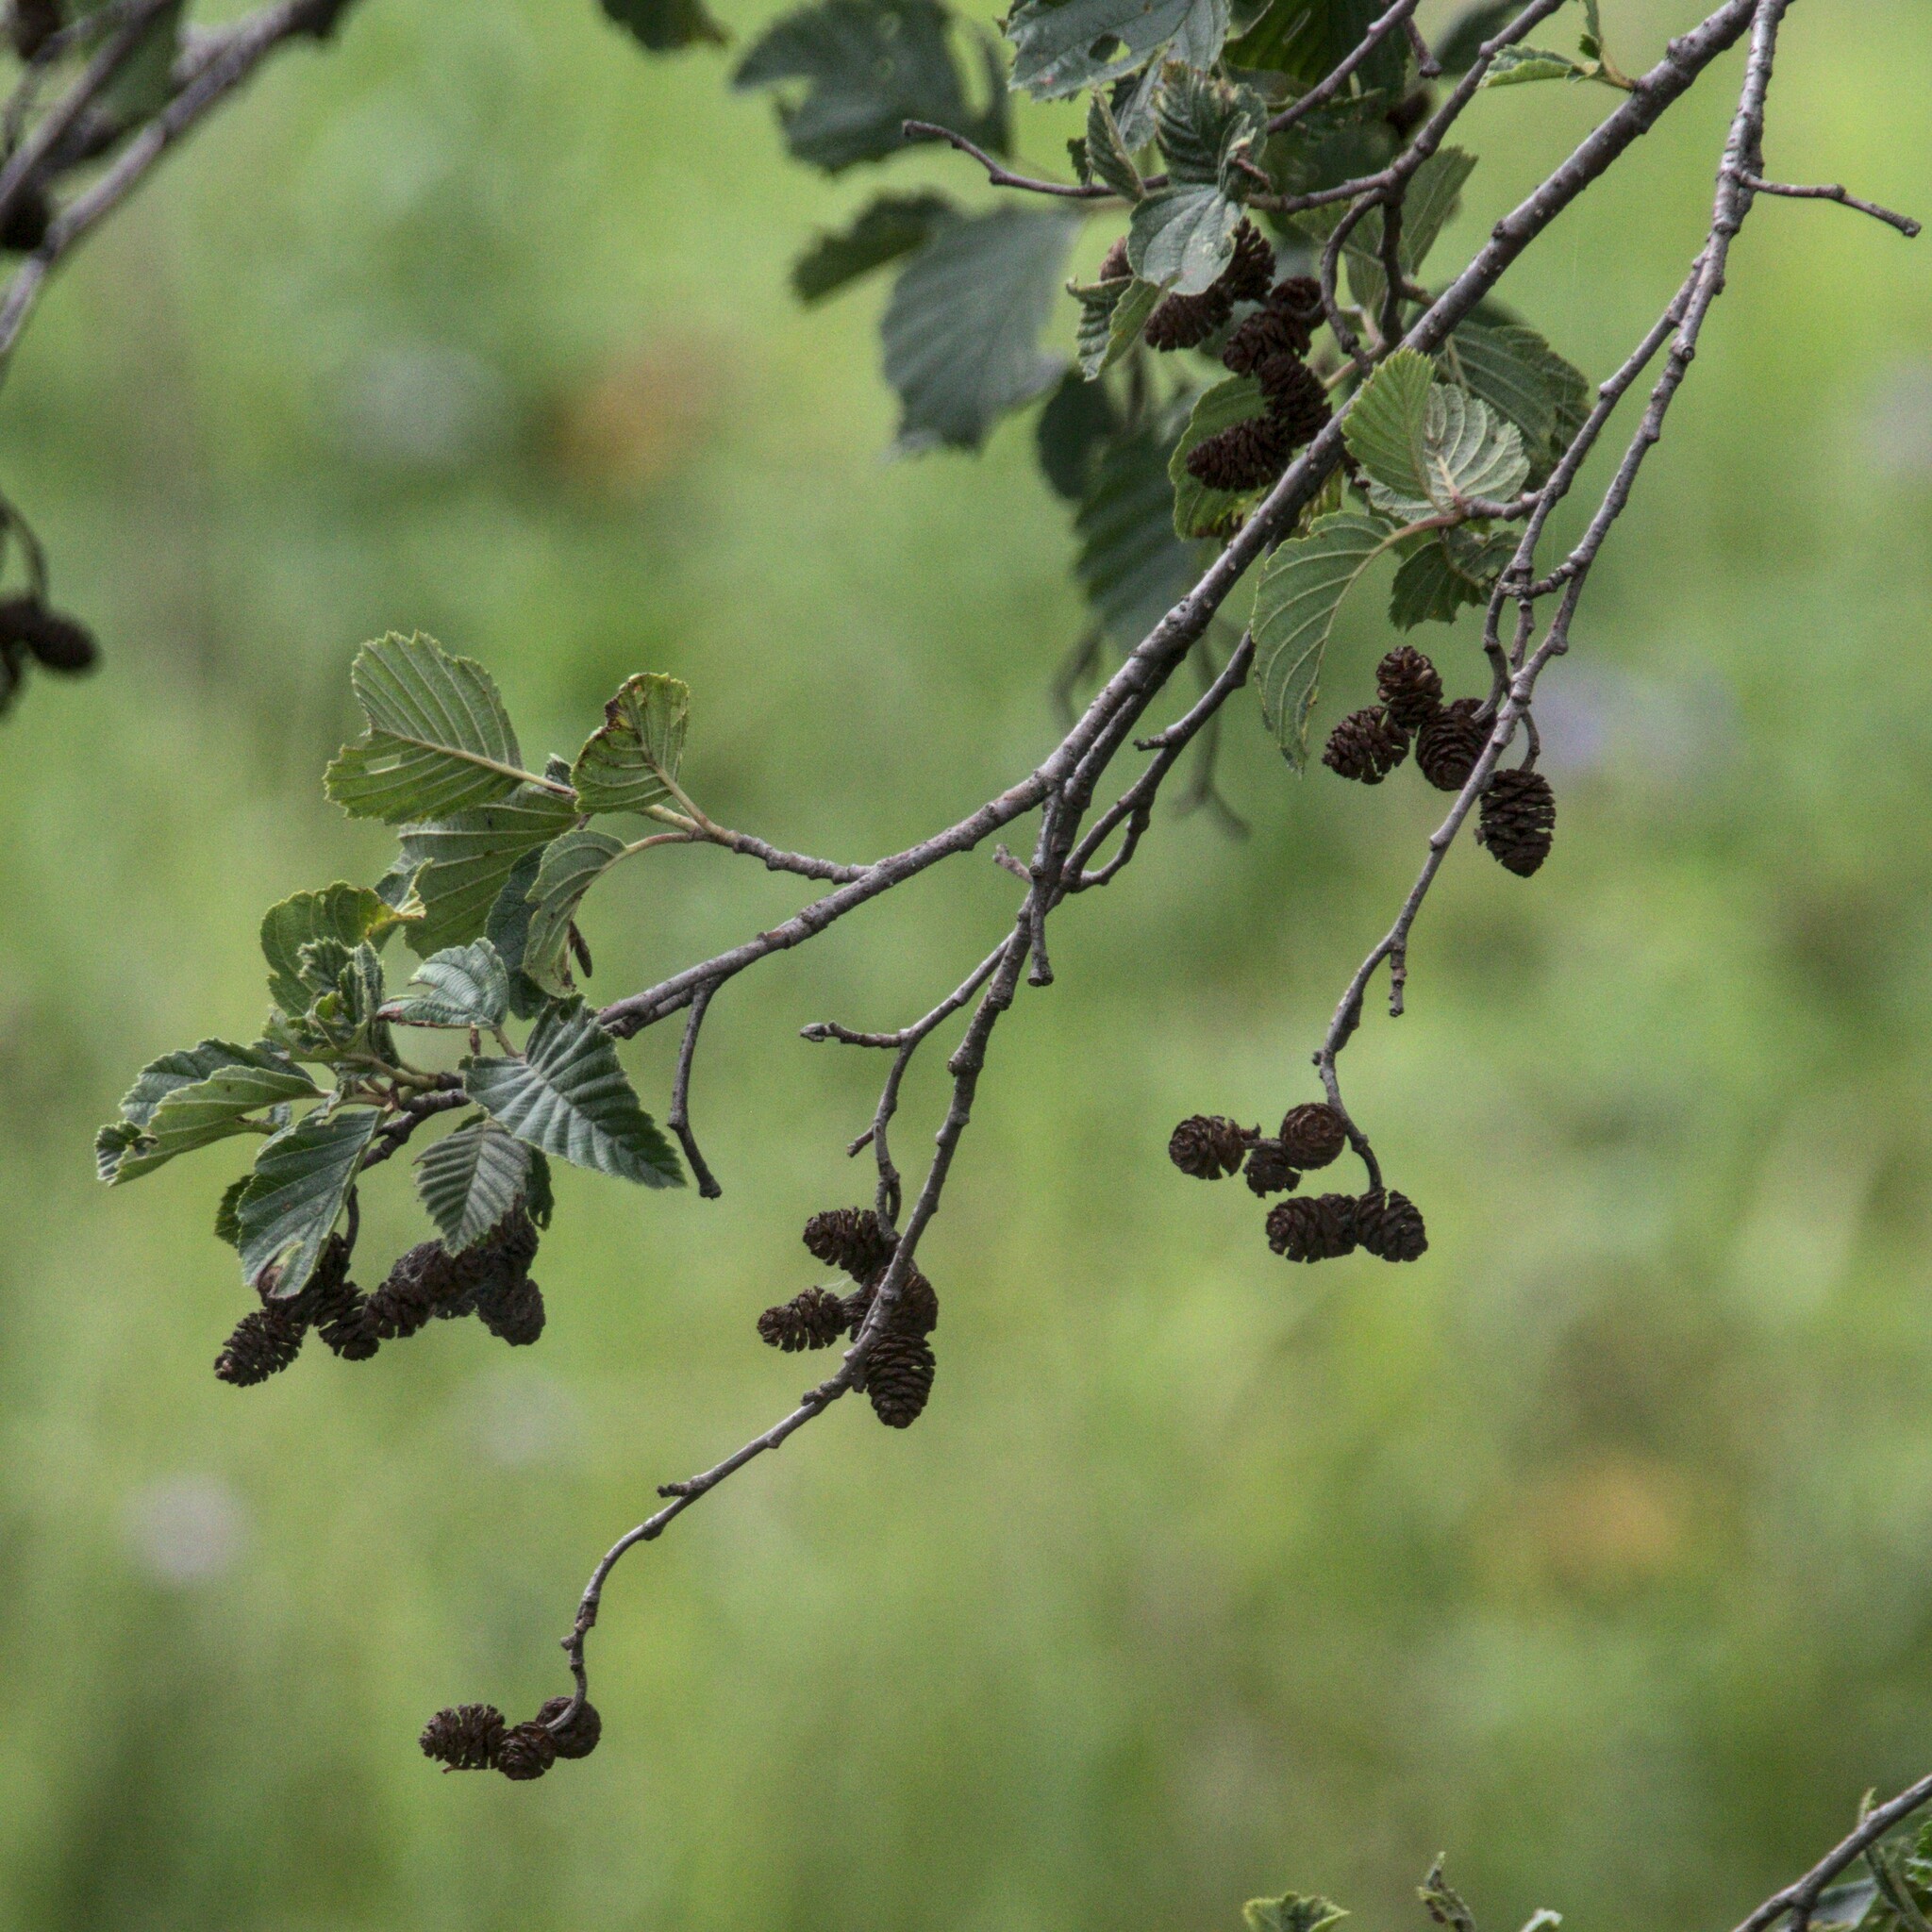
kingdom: Plantae
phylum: Tracheophyta
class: Magnoliopsida
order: Fagales
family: Betulaceae
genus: Alnus
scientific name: Alnus incana
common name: Grey alder
